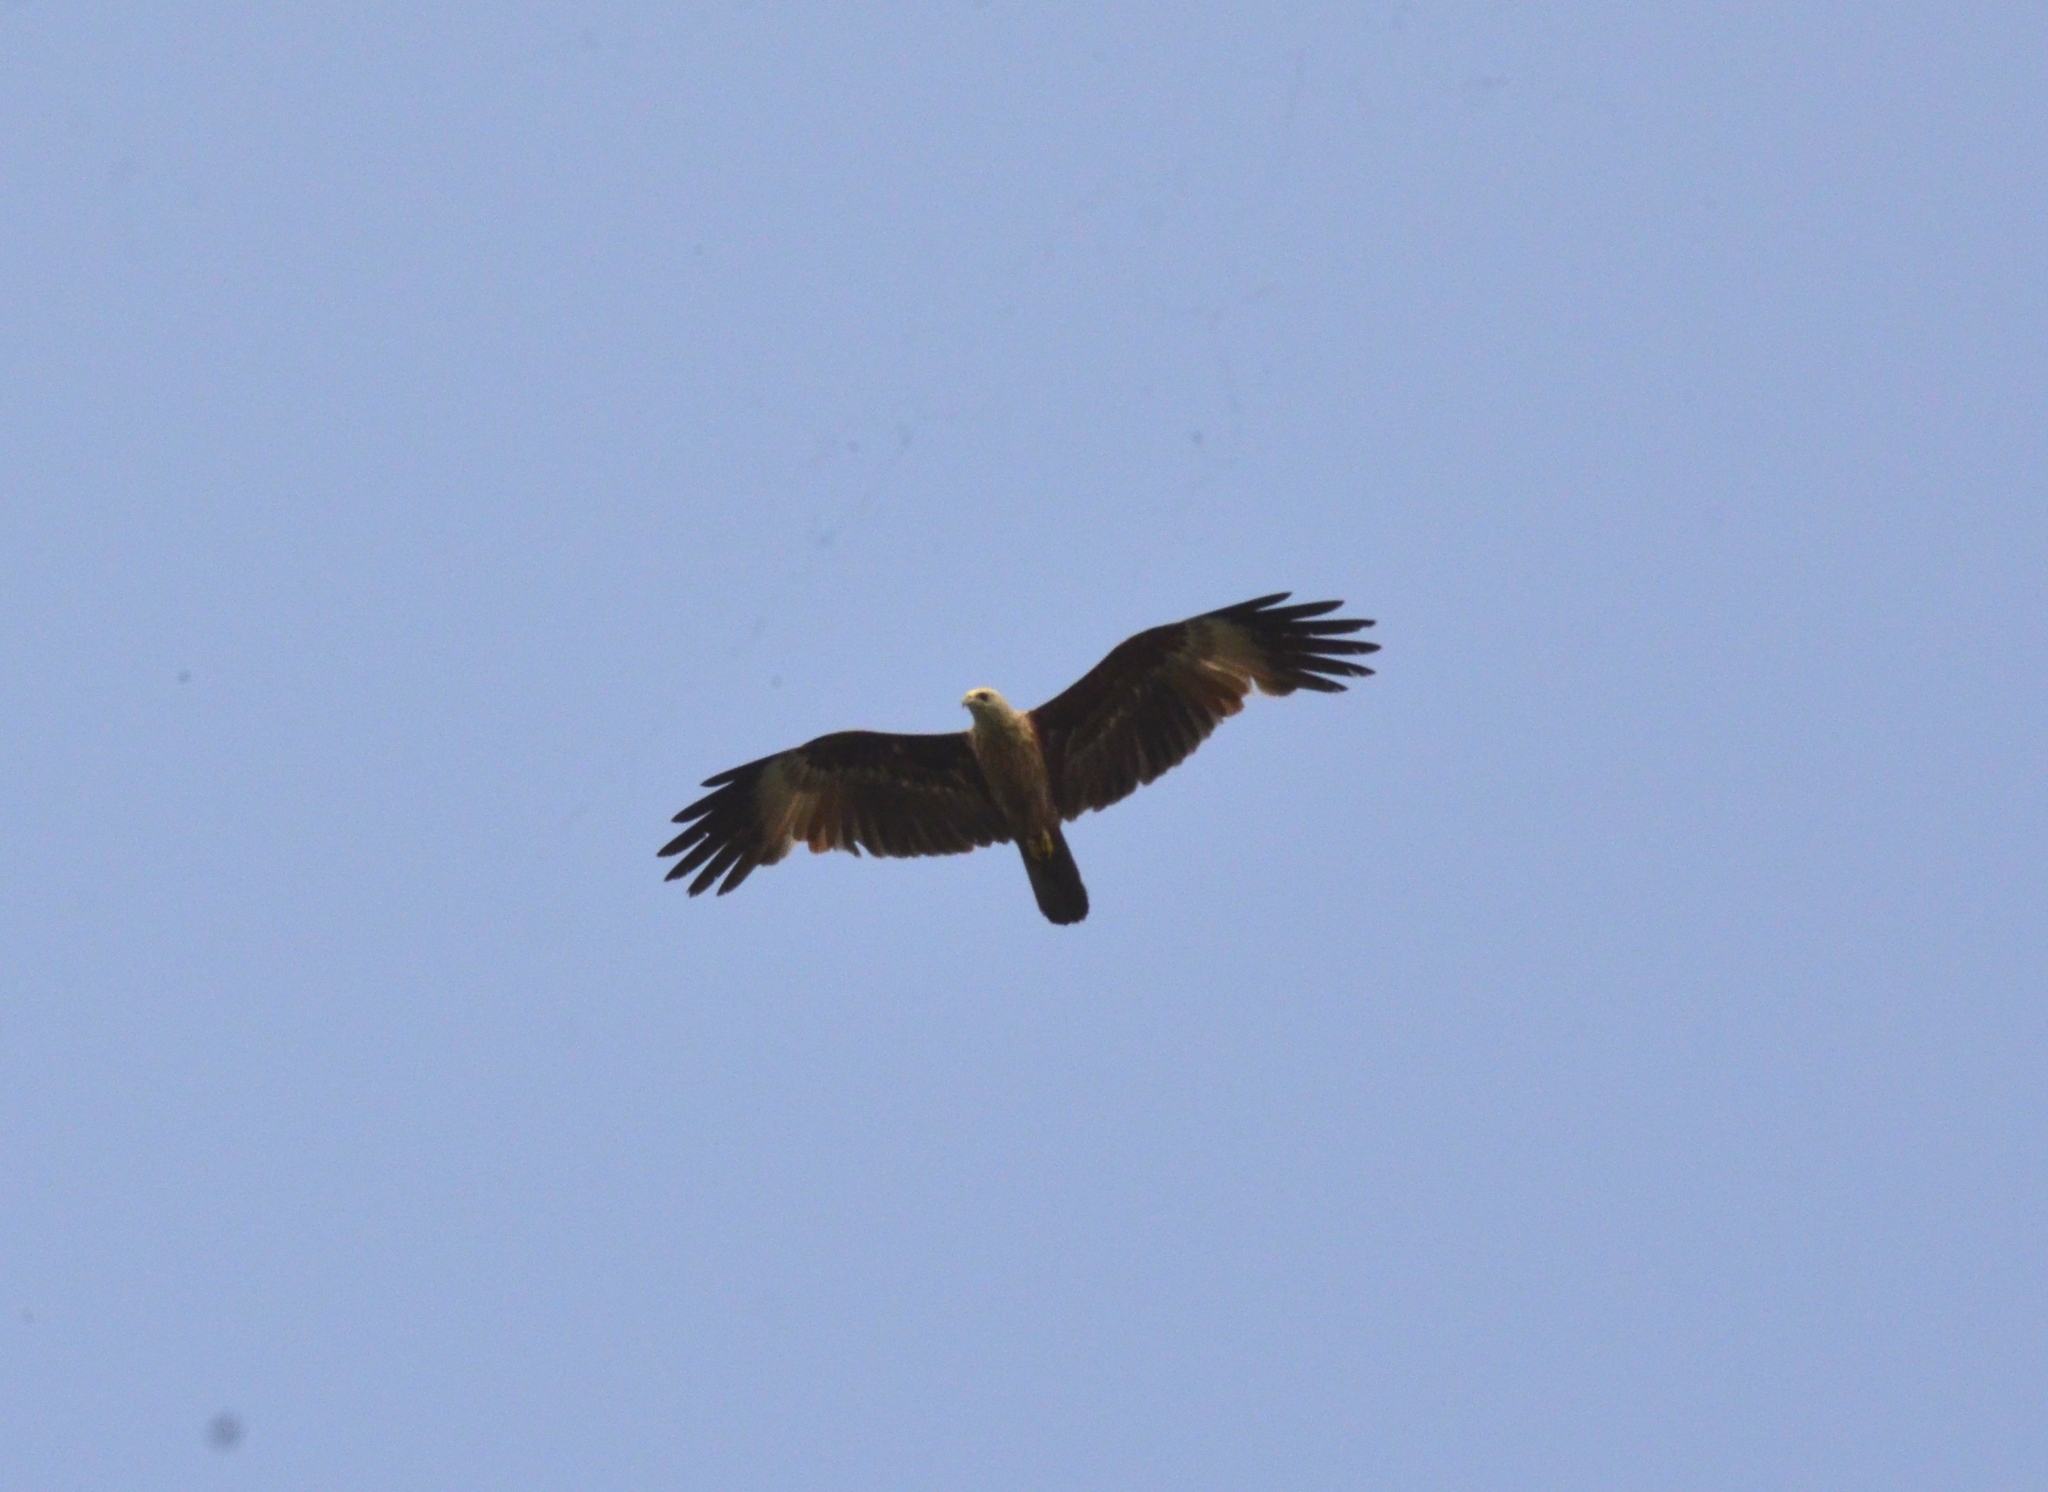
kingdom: Animalia
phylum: Chordata
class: Aves
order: Accipitriformes
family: Accipitridae
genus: Haliastur
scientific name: Haliastur indus
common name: Brahminy kite
